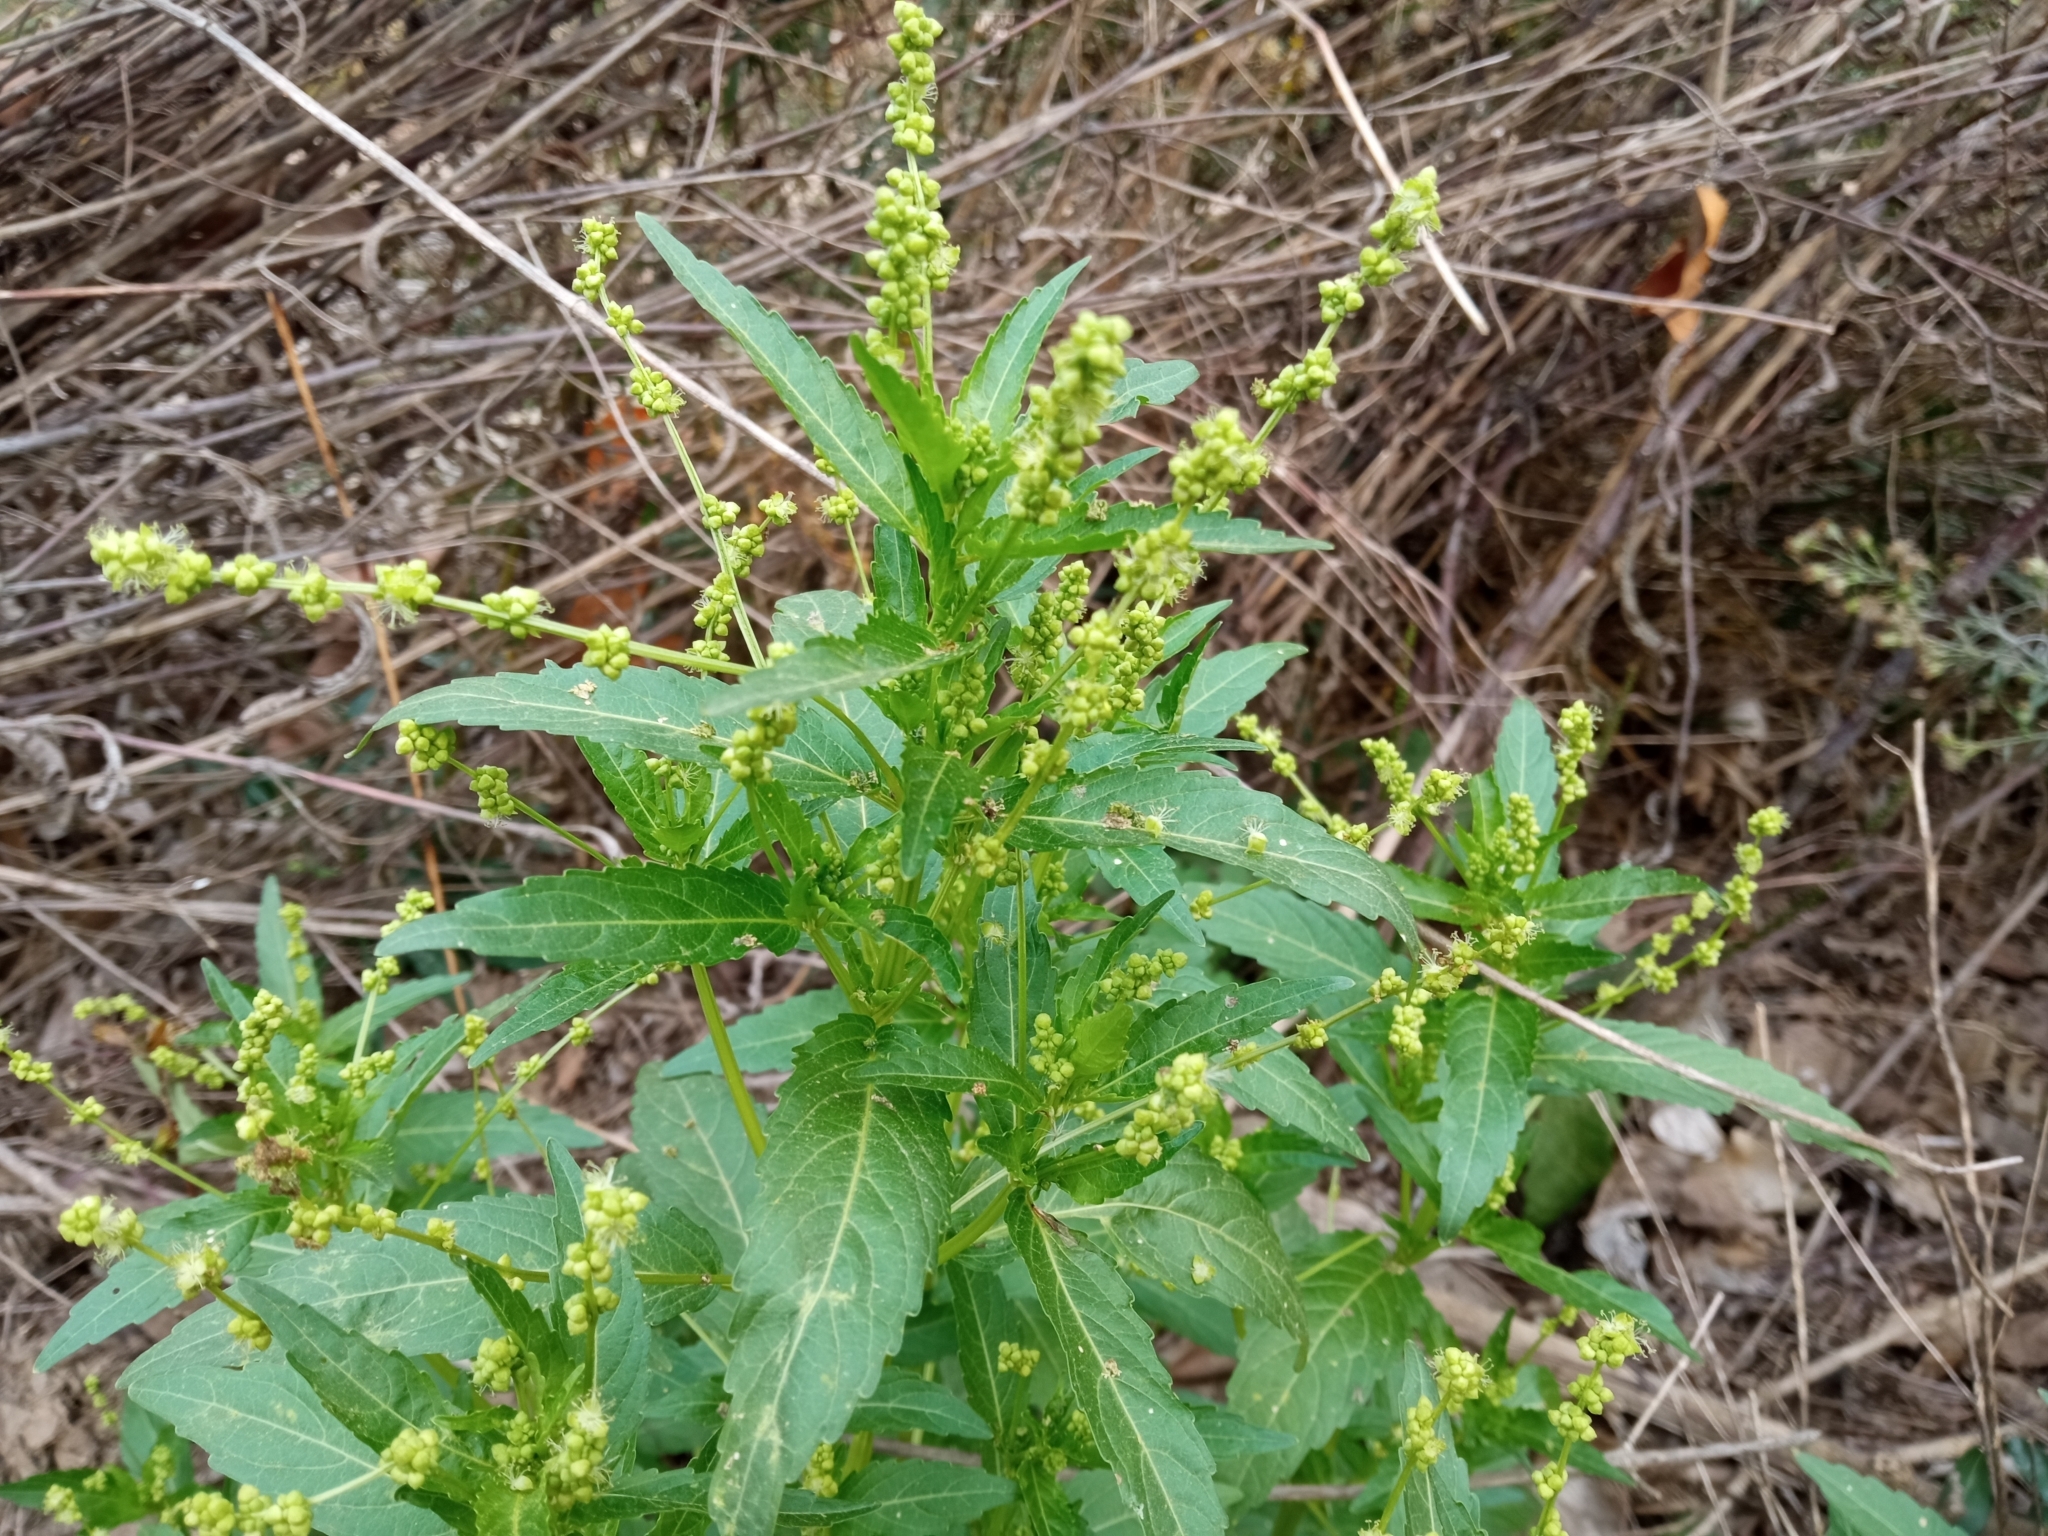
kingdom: Plantae
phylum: Tracheophyta
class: Magnoliopsida
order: Malpighiales
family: Euphorbiaceae
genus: Mercurialis
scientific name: Mercurialis annua
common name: Annual mercury
